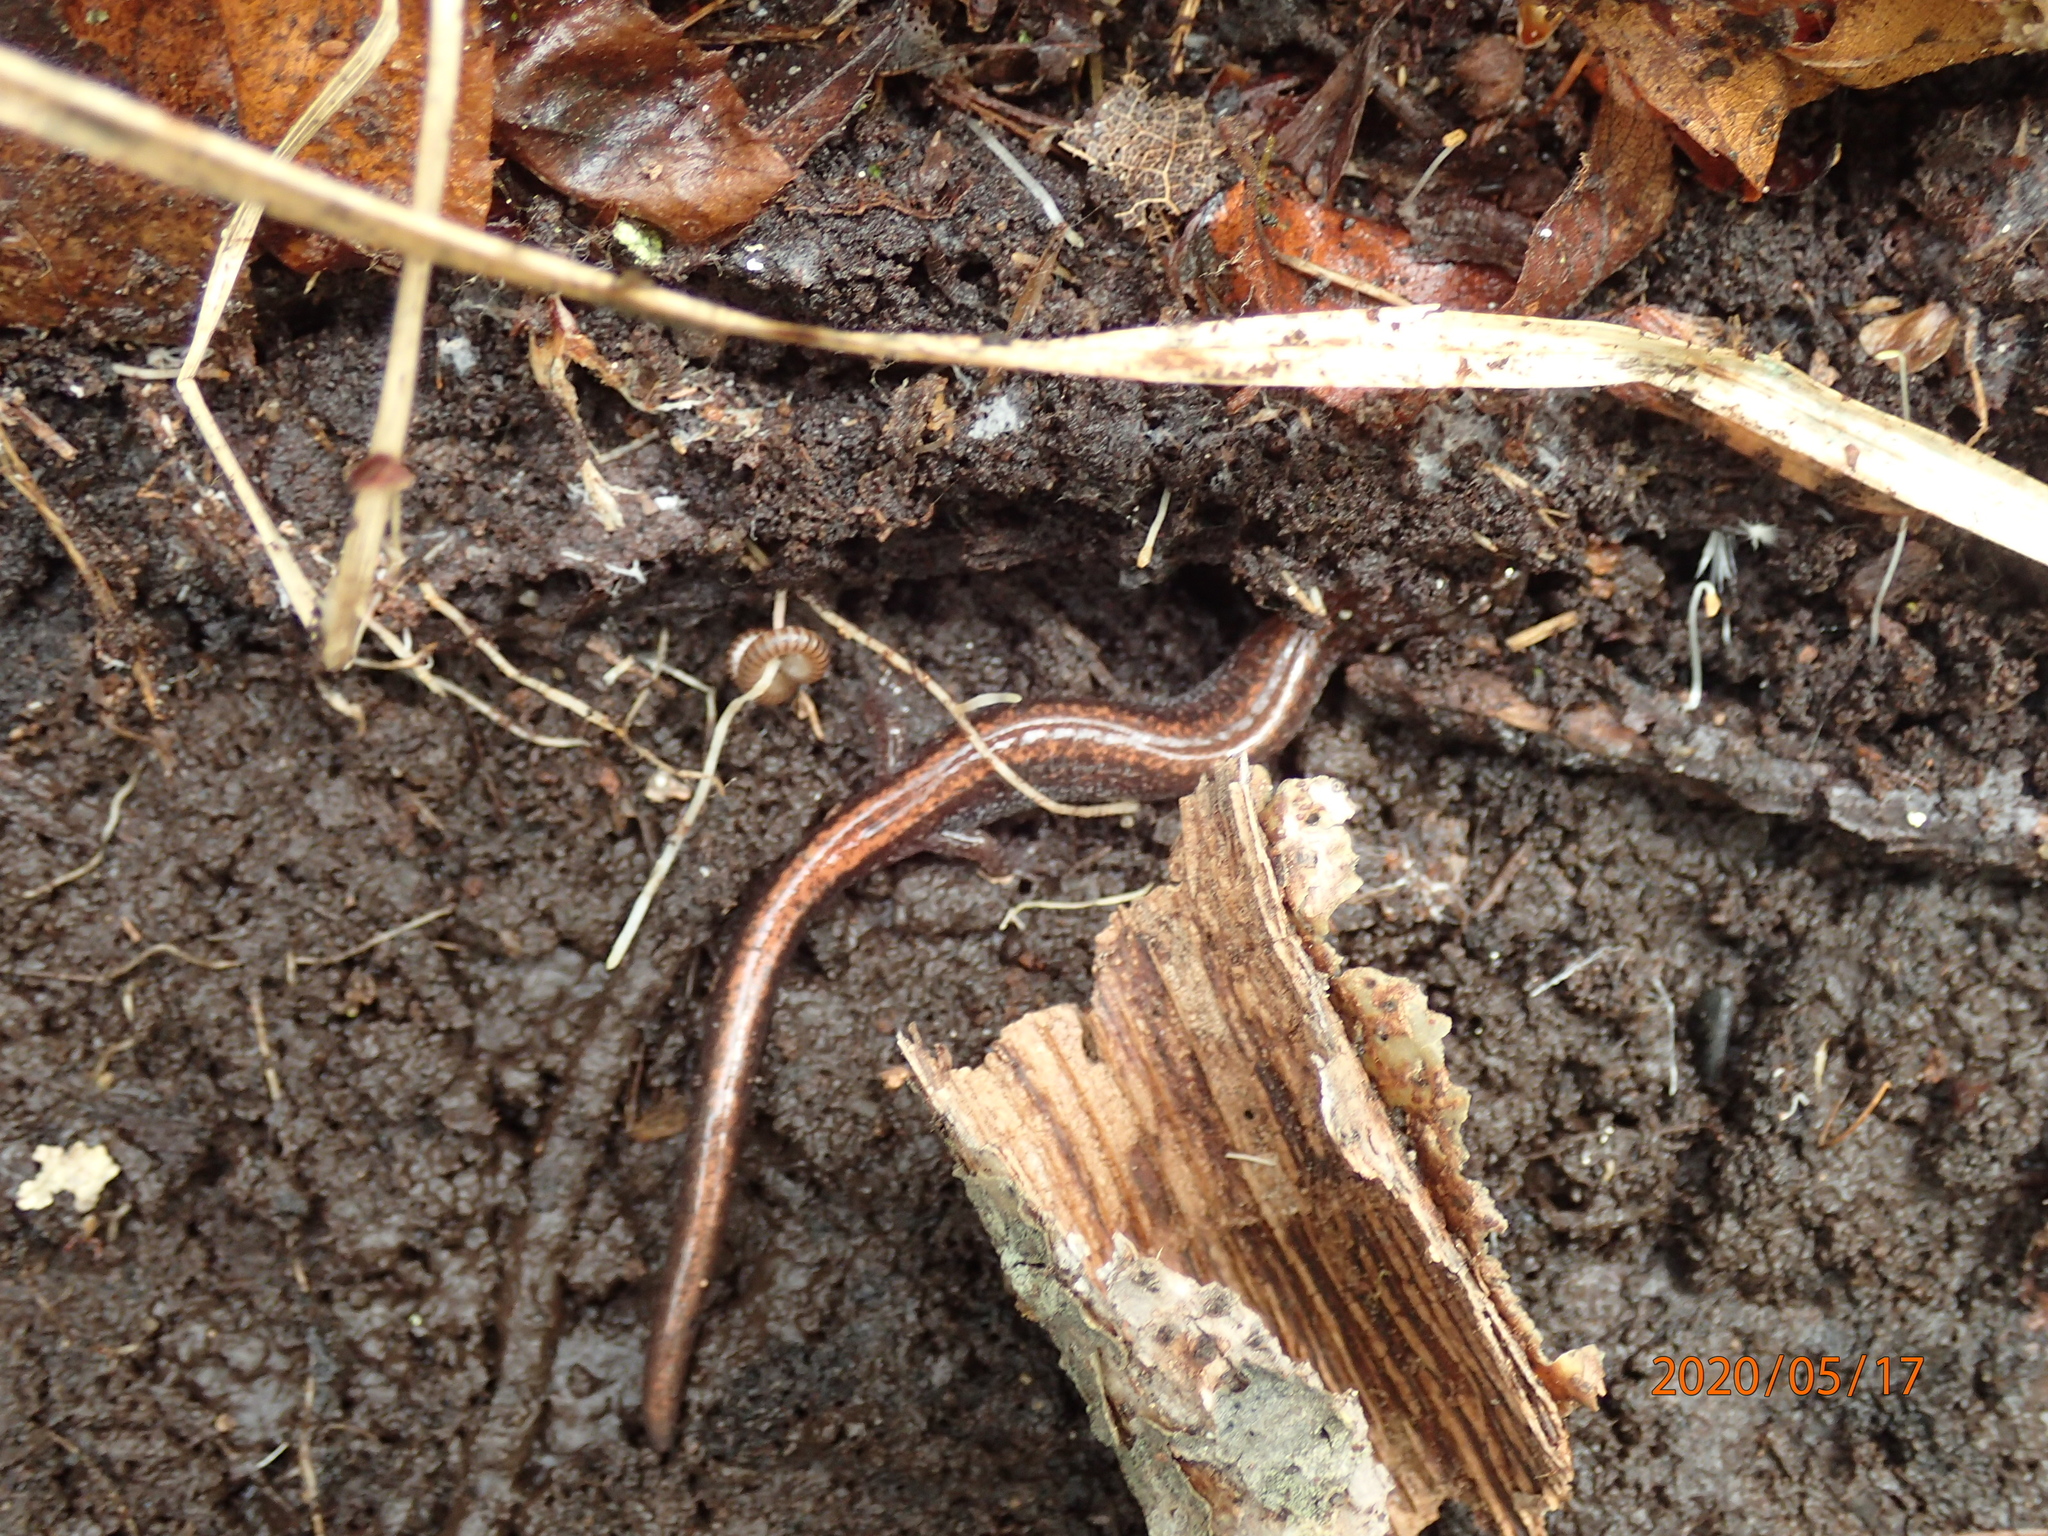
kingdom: Animalia
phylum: Chordata
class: Amphibia
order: Caudata
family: Plethodontidae
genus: Plethodon
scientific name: Plethodon cinereus
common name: Redback salamander
